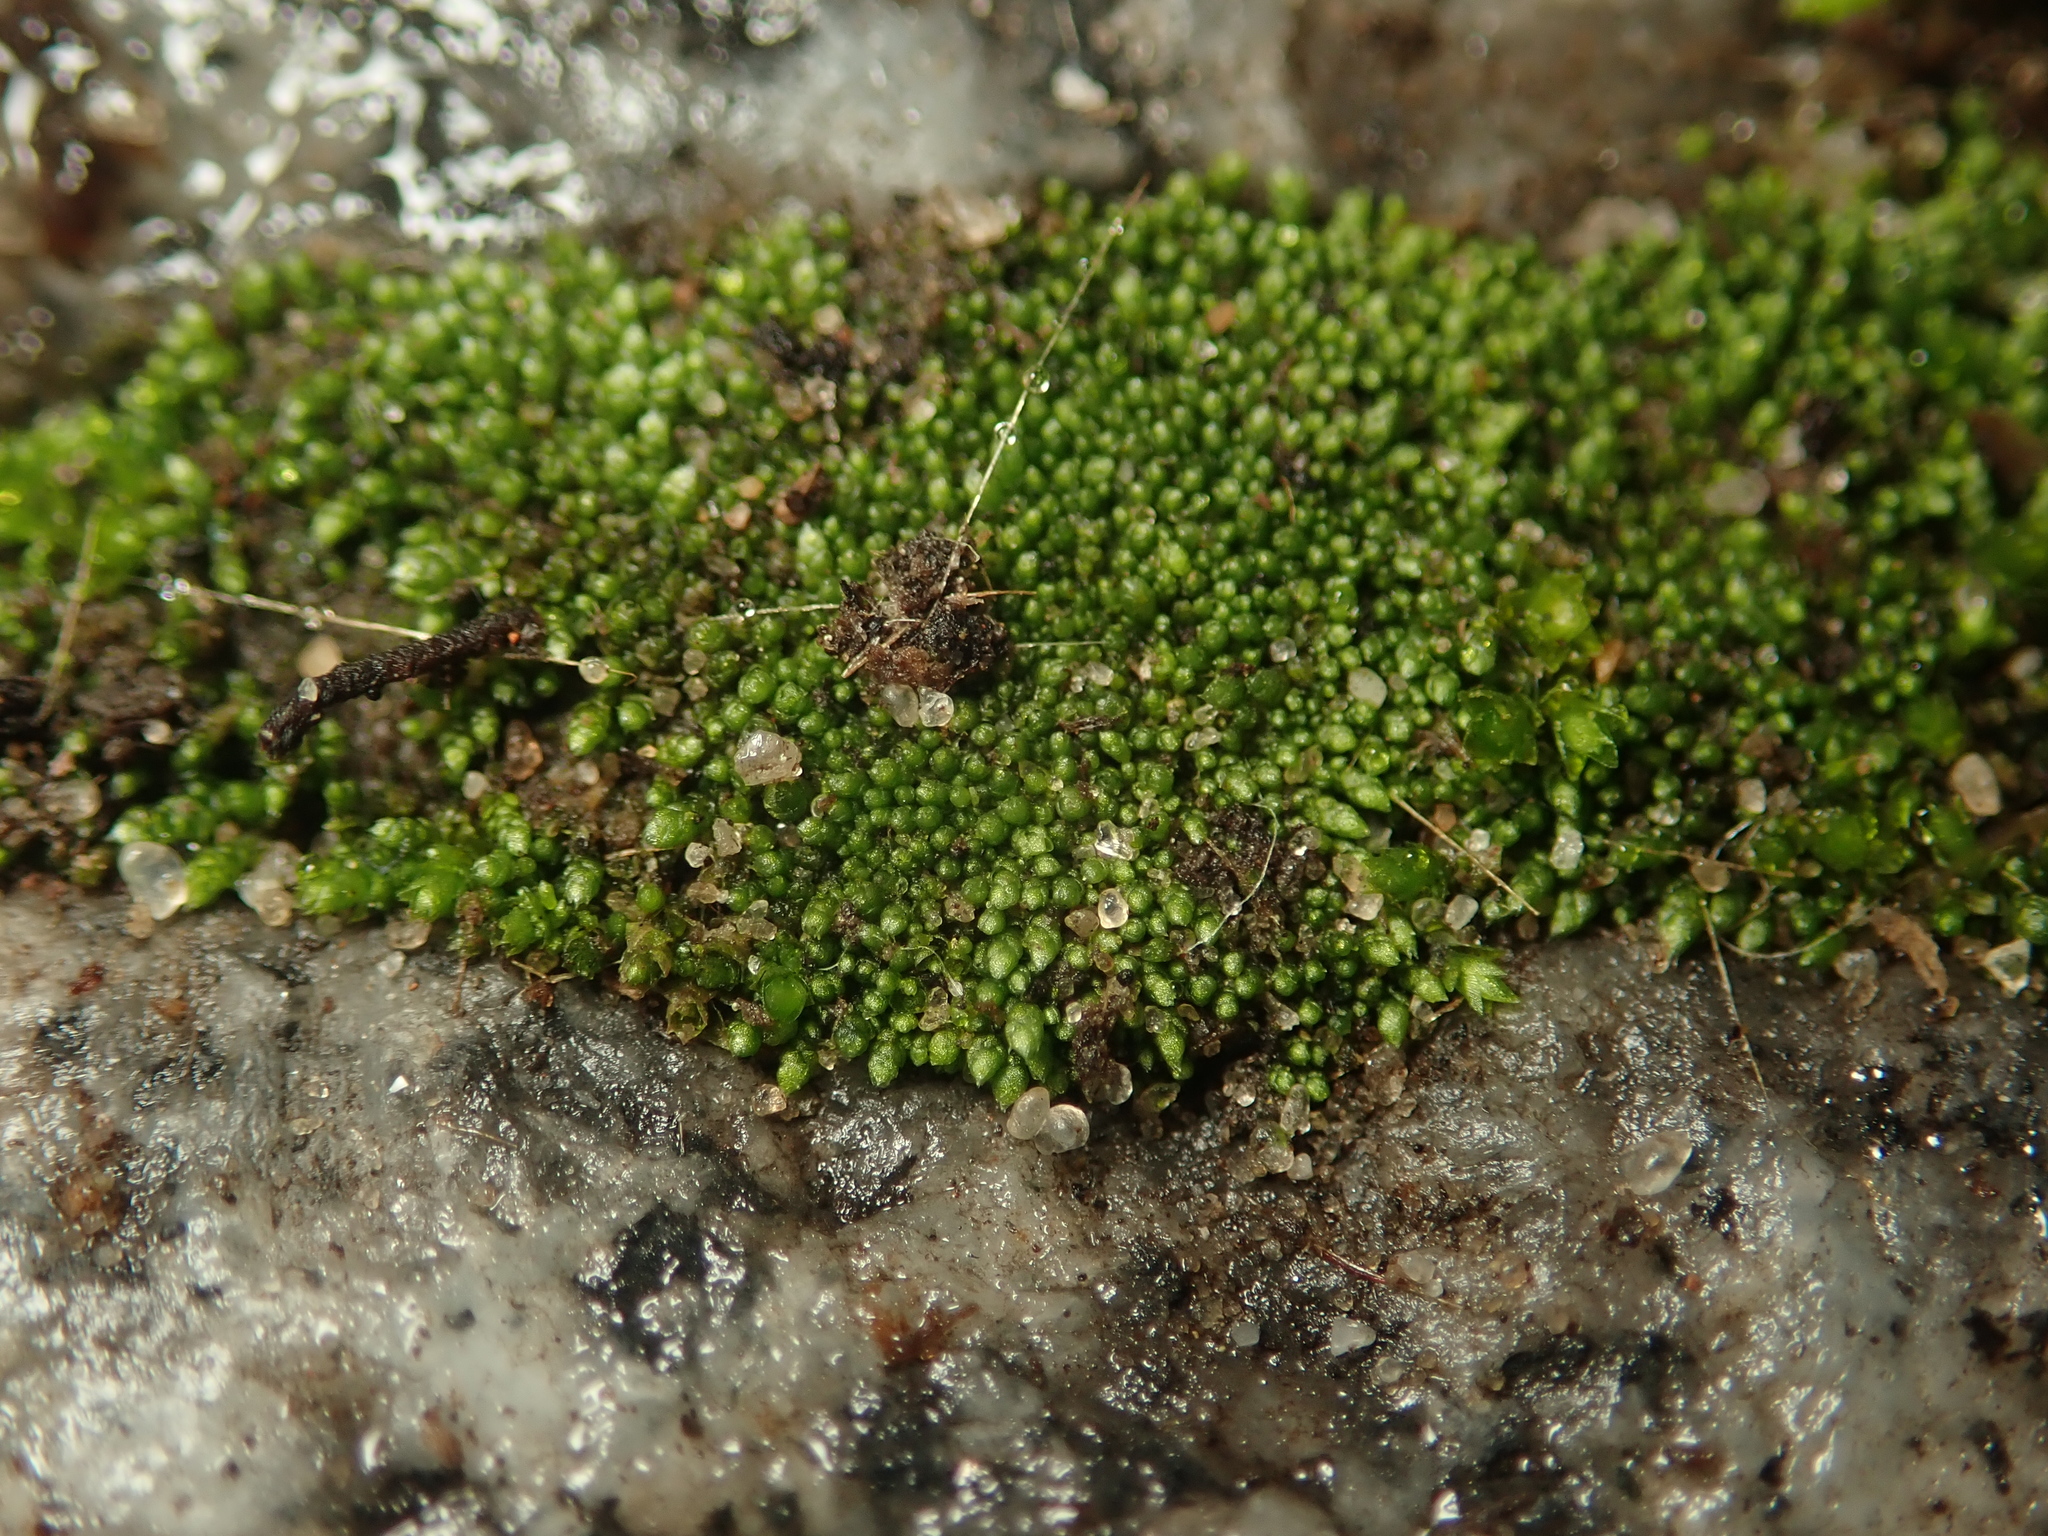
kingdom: Plantae
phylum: Bryophyta
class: Bryopsida
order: Bryales
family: Bryaceae
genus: Bryum
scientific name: Bryum argenteum
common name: Silver-moss
